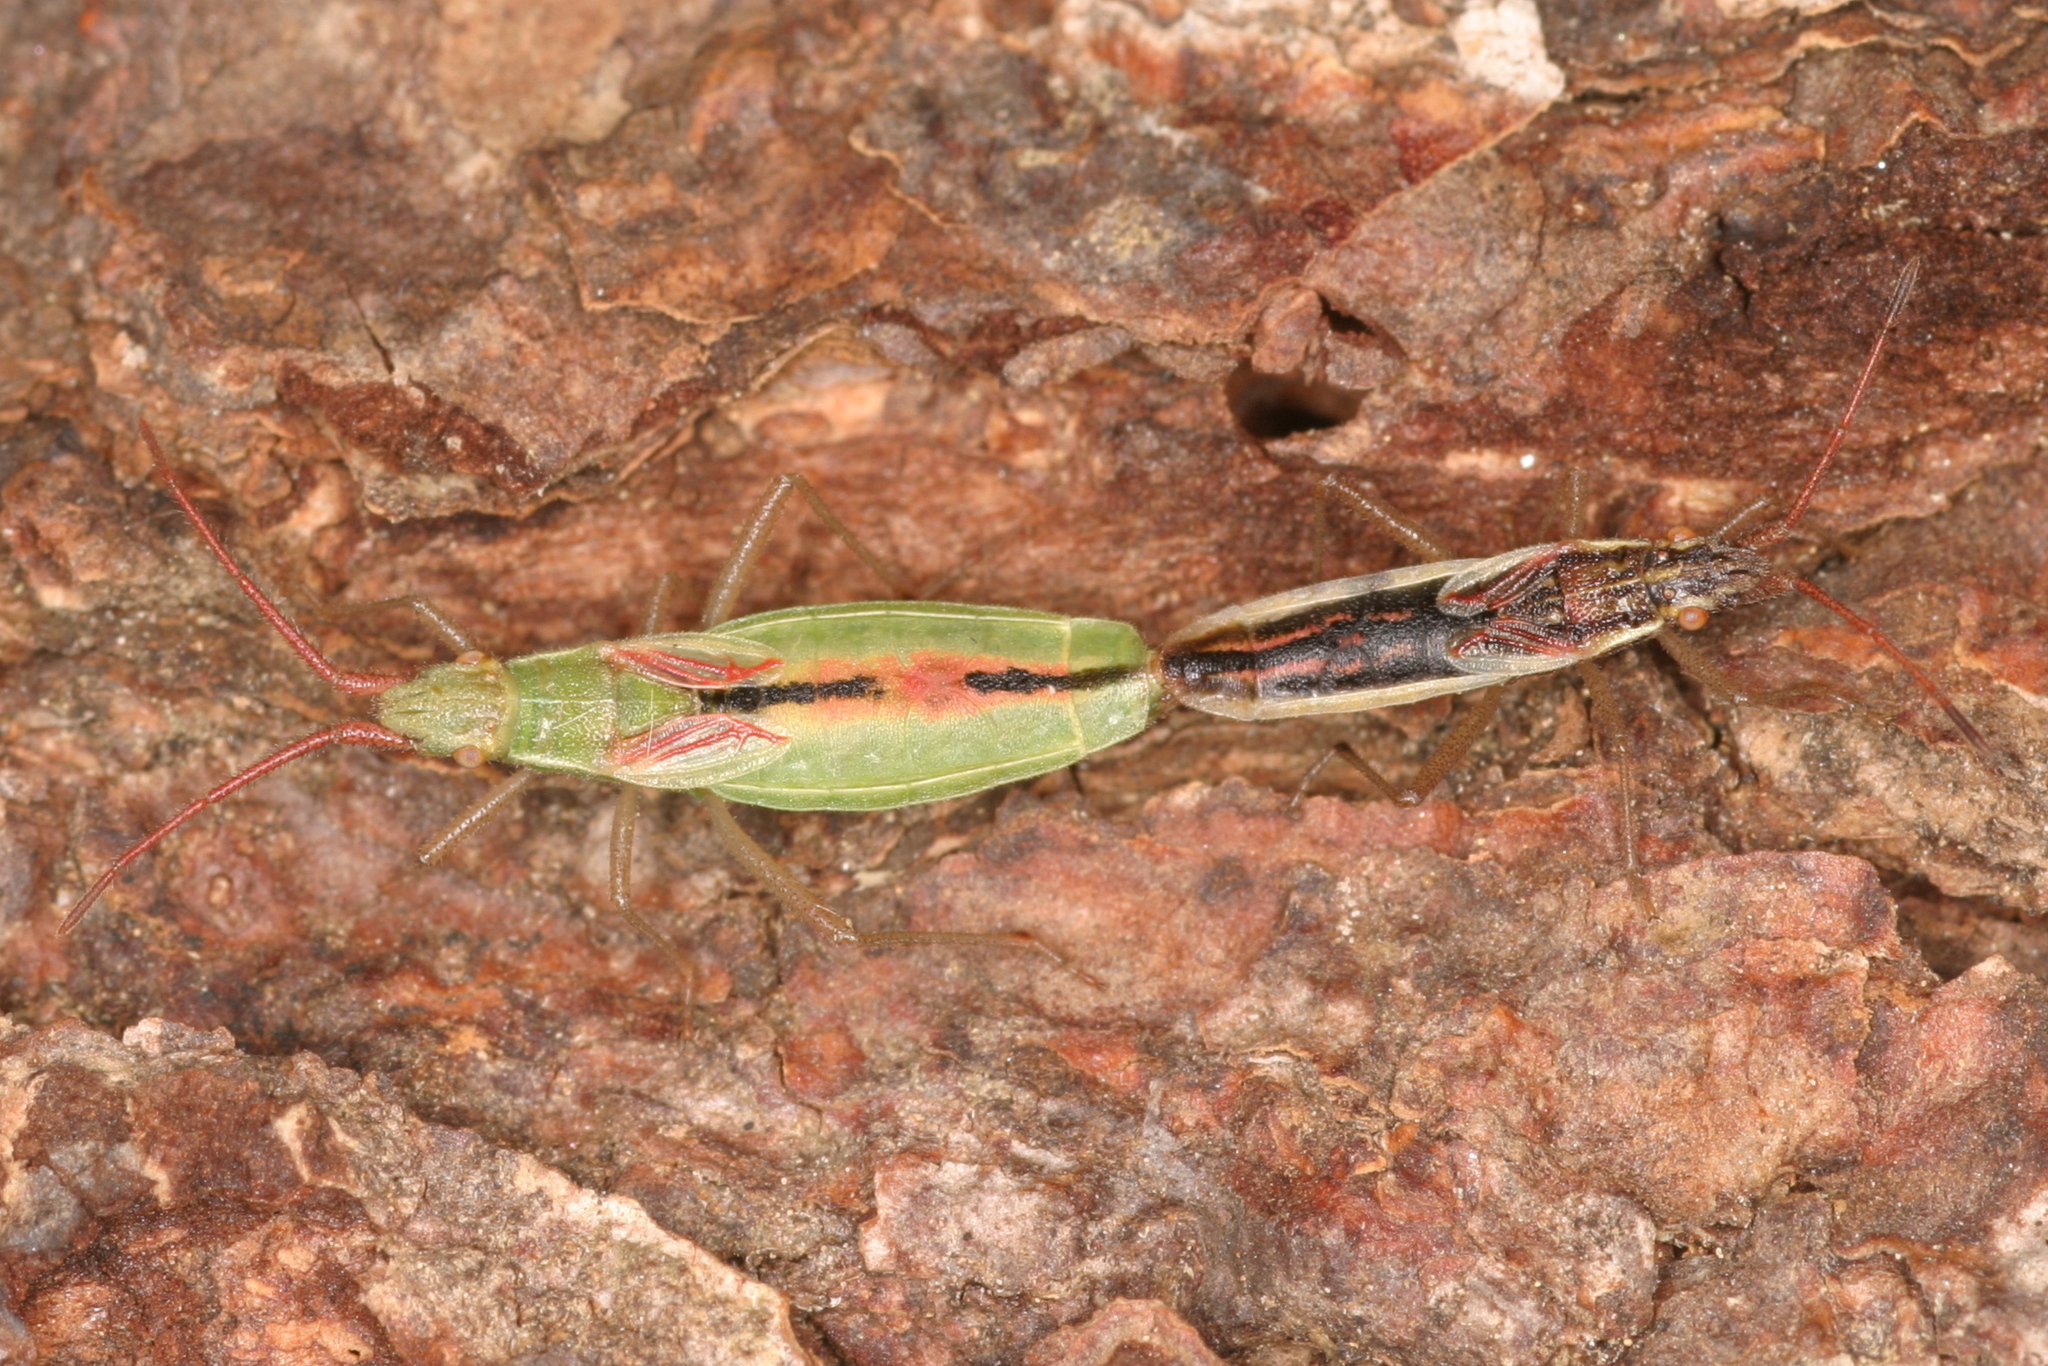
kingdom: Animalia
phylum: Arthropoda
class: Insecta
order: Hemiptera
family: Rhopalidae
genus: Myrmus
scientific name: Myrmus miriformis
